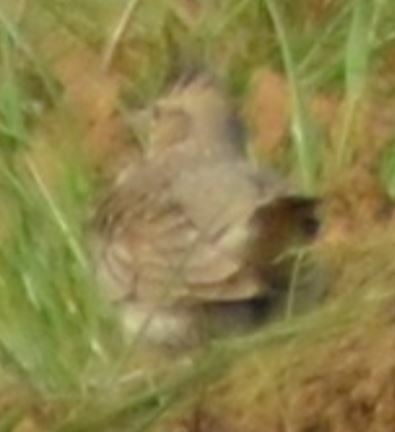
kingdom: Animalia
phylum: Chordata
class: Aves
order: Passeriformes
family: Alaudidae
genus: Galerida
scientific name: Galerida cristata
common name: Crested lark
